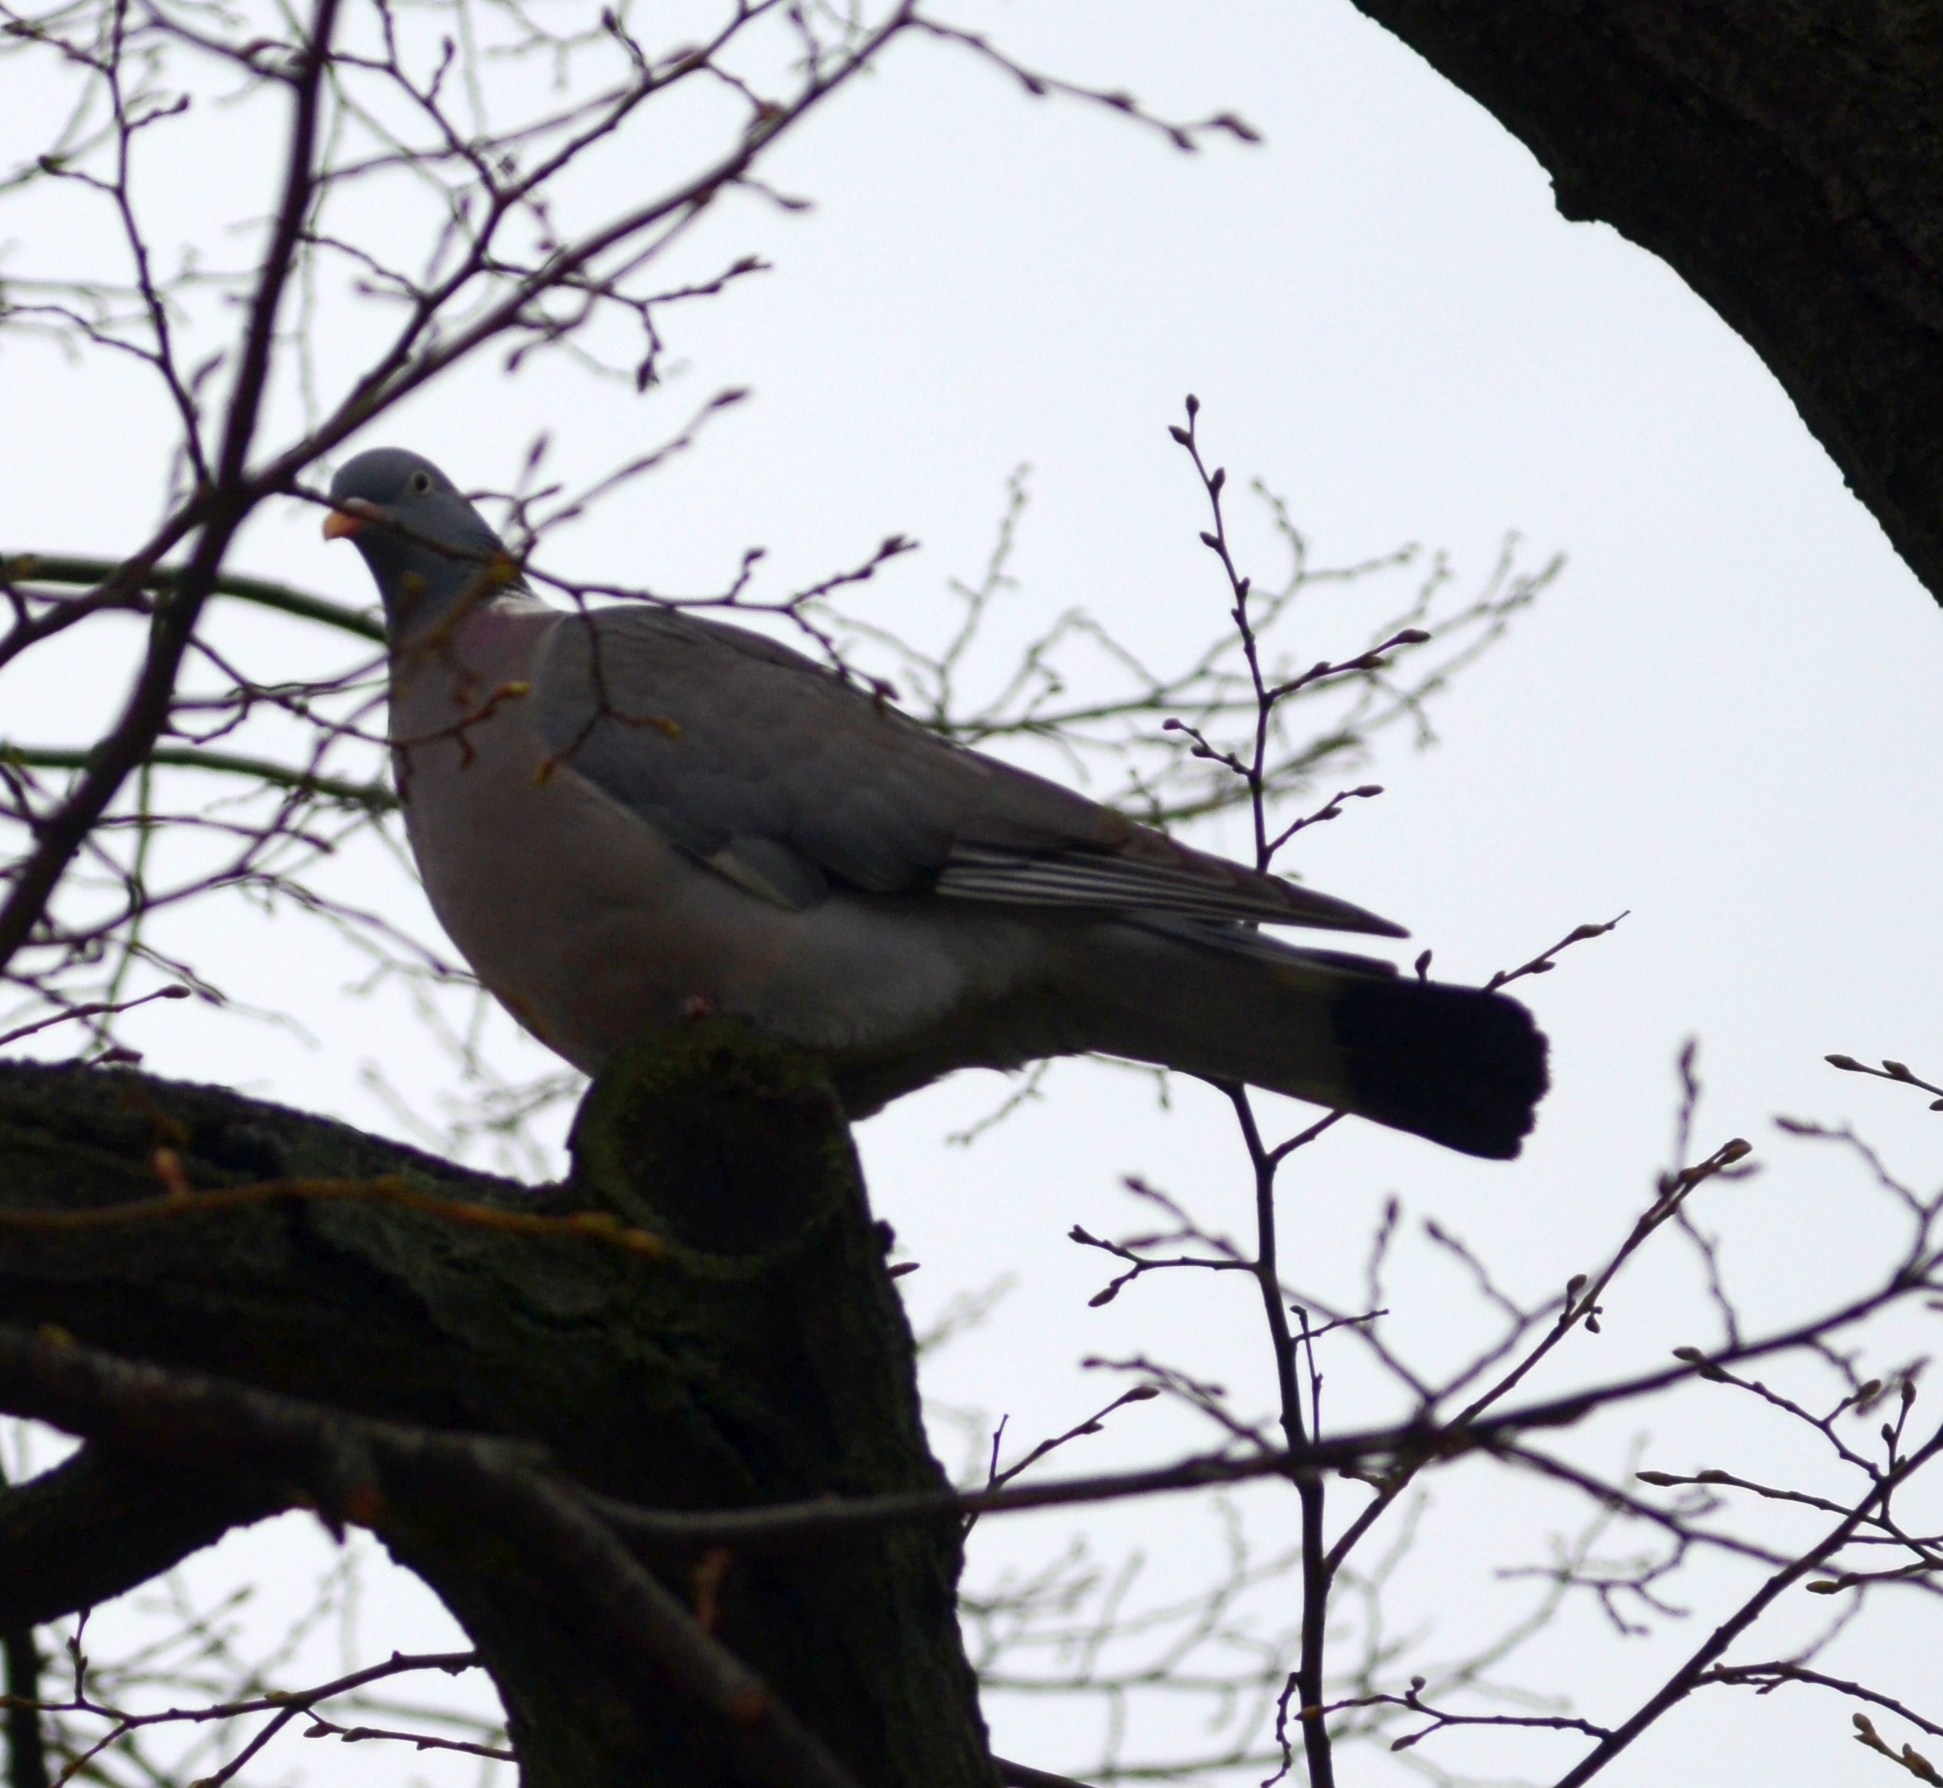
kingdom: Animalia
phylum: Chordata
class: Aves
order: Columbiformes
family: Columbidae
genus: Columba
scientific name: Columba palumbus
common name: Common wood pigeon
